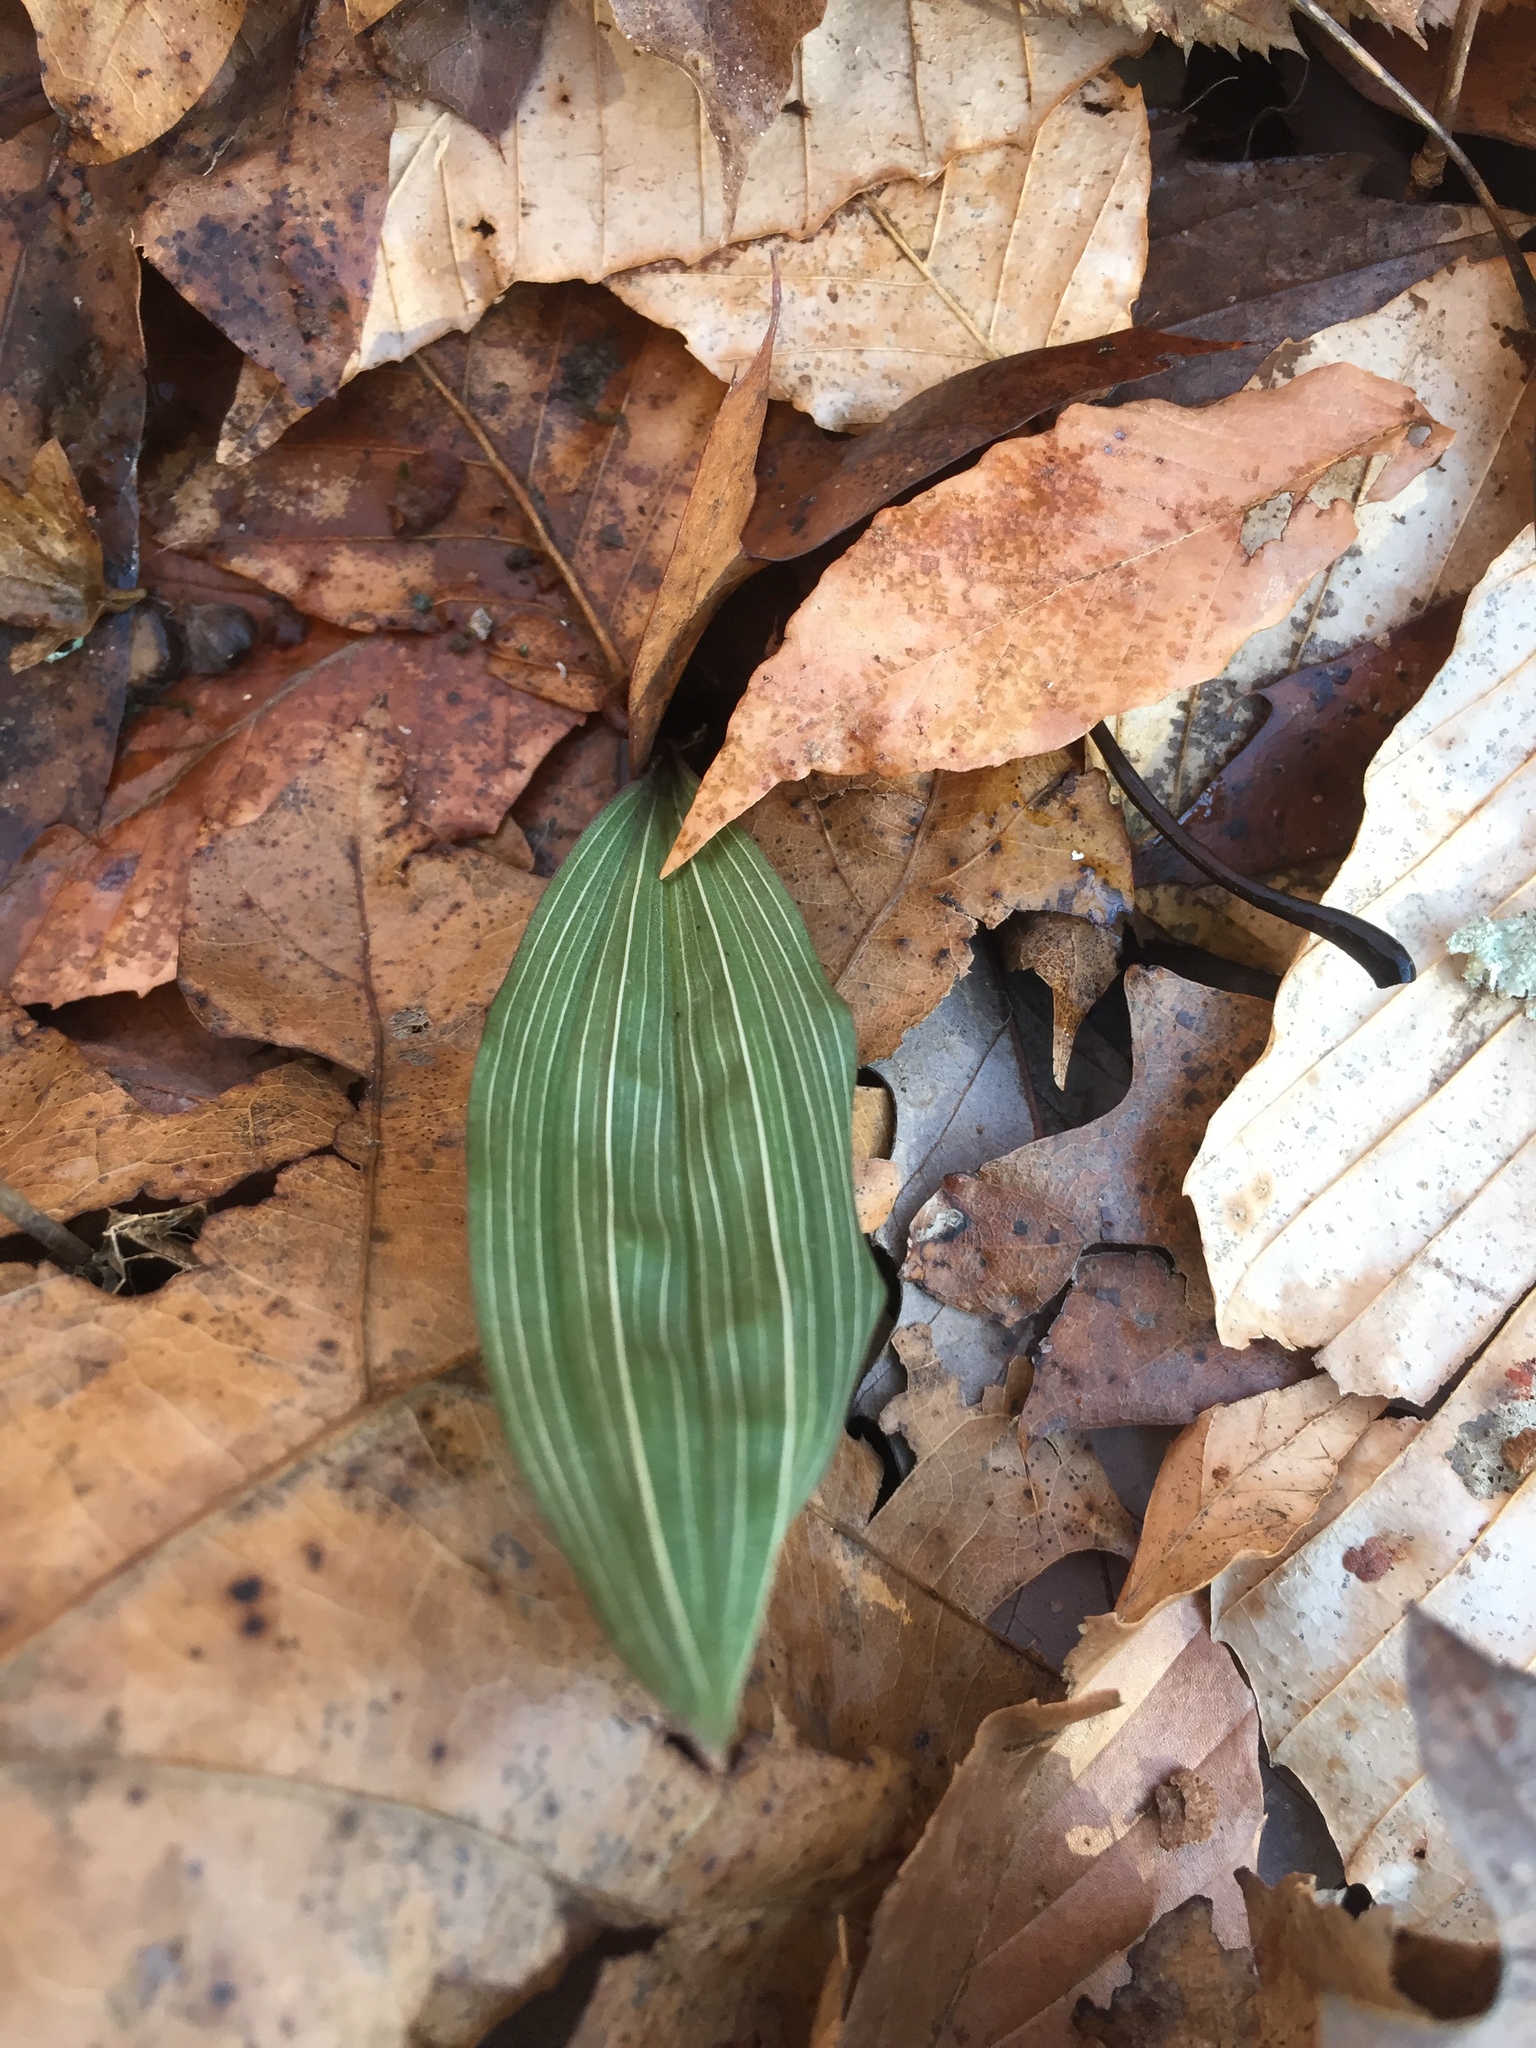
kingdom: Plantae
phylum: Tracheophyta
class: Liliopsida
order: Asparagales
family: Orchidaceae
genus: Aplectrum
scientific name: Aplectrum hyemale
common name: Adam-and-eve
